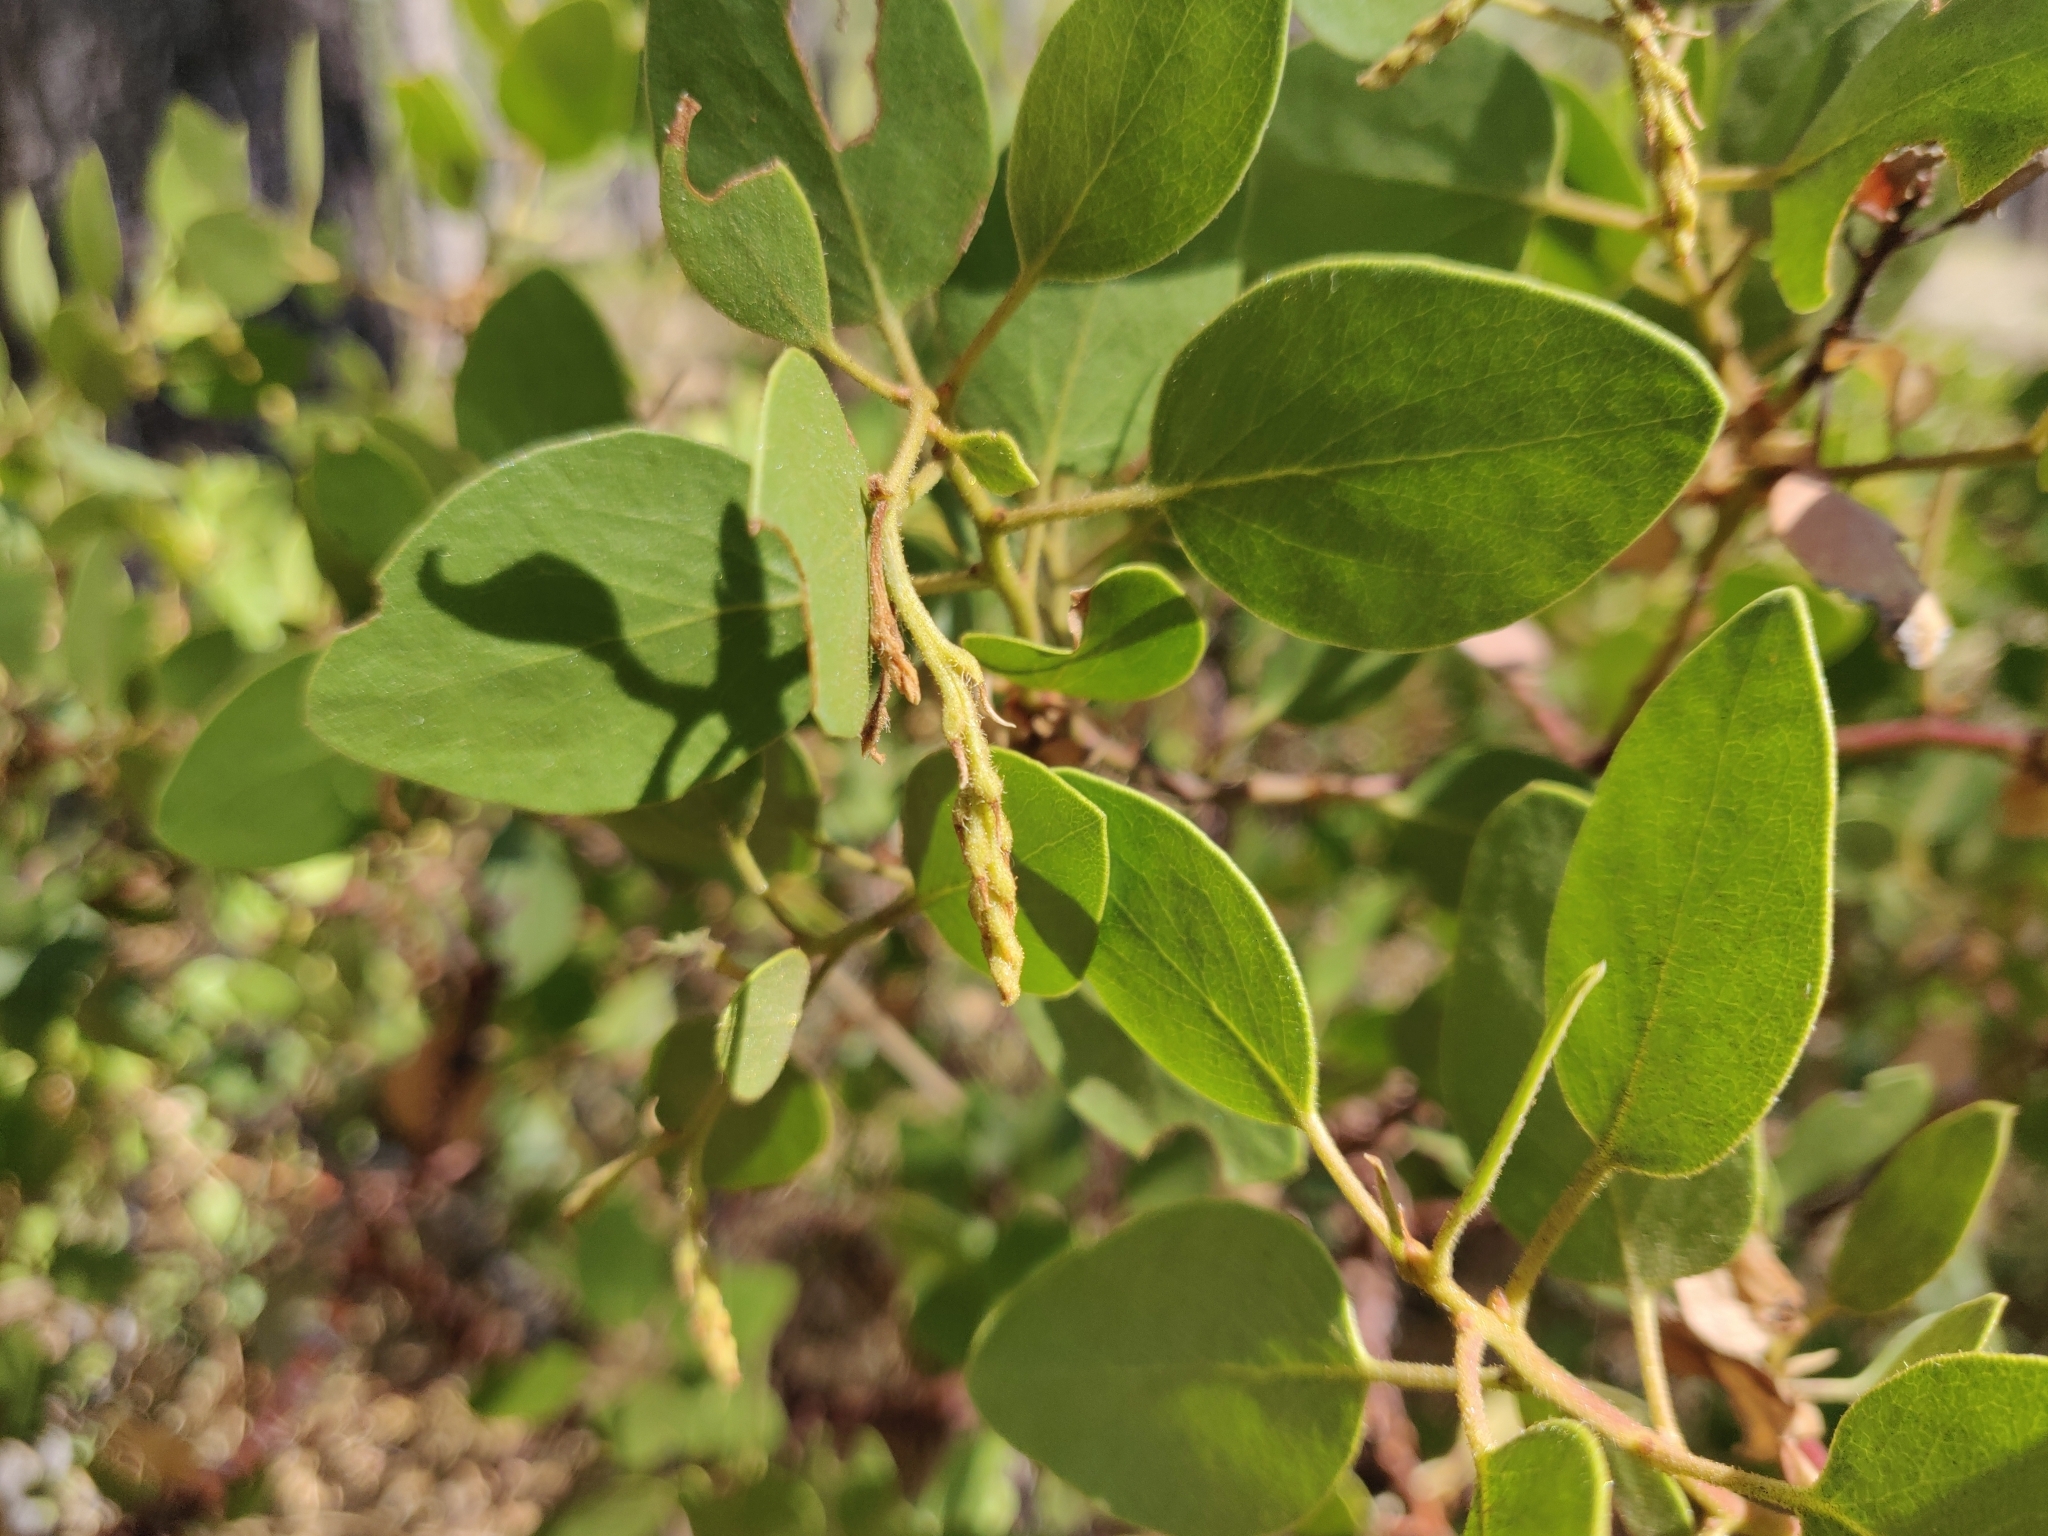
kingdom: Plantae
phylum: Tracheophyta
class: Magnoliopsida
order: Ericales
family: Ericaceae
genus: Arctostaphylos
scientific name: Arctostaphylos patula
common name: Green-leaf manzanita
